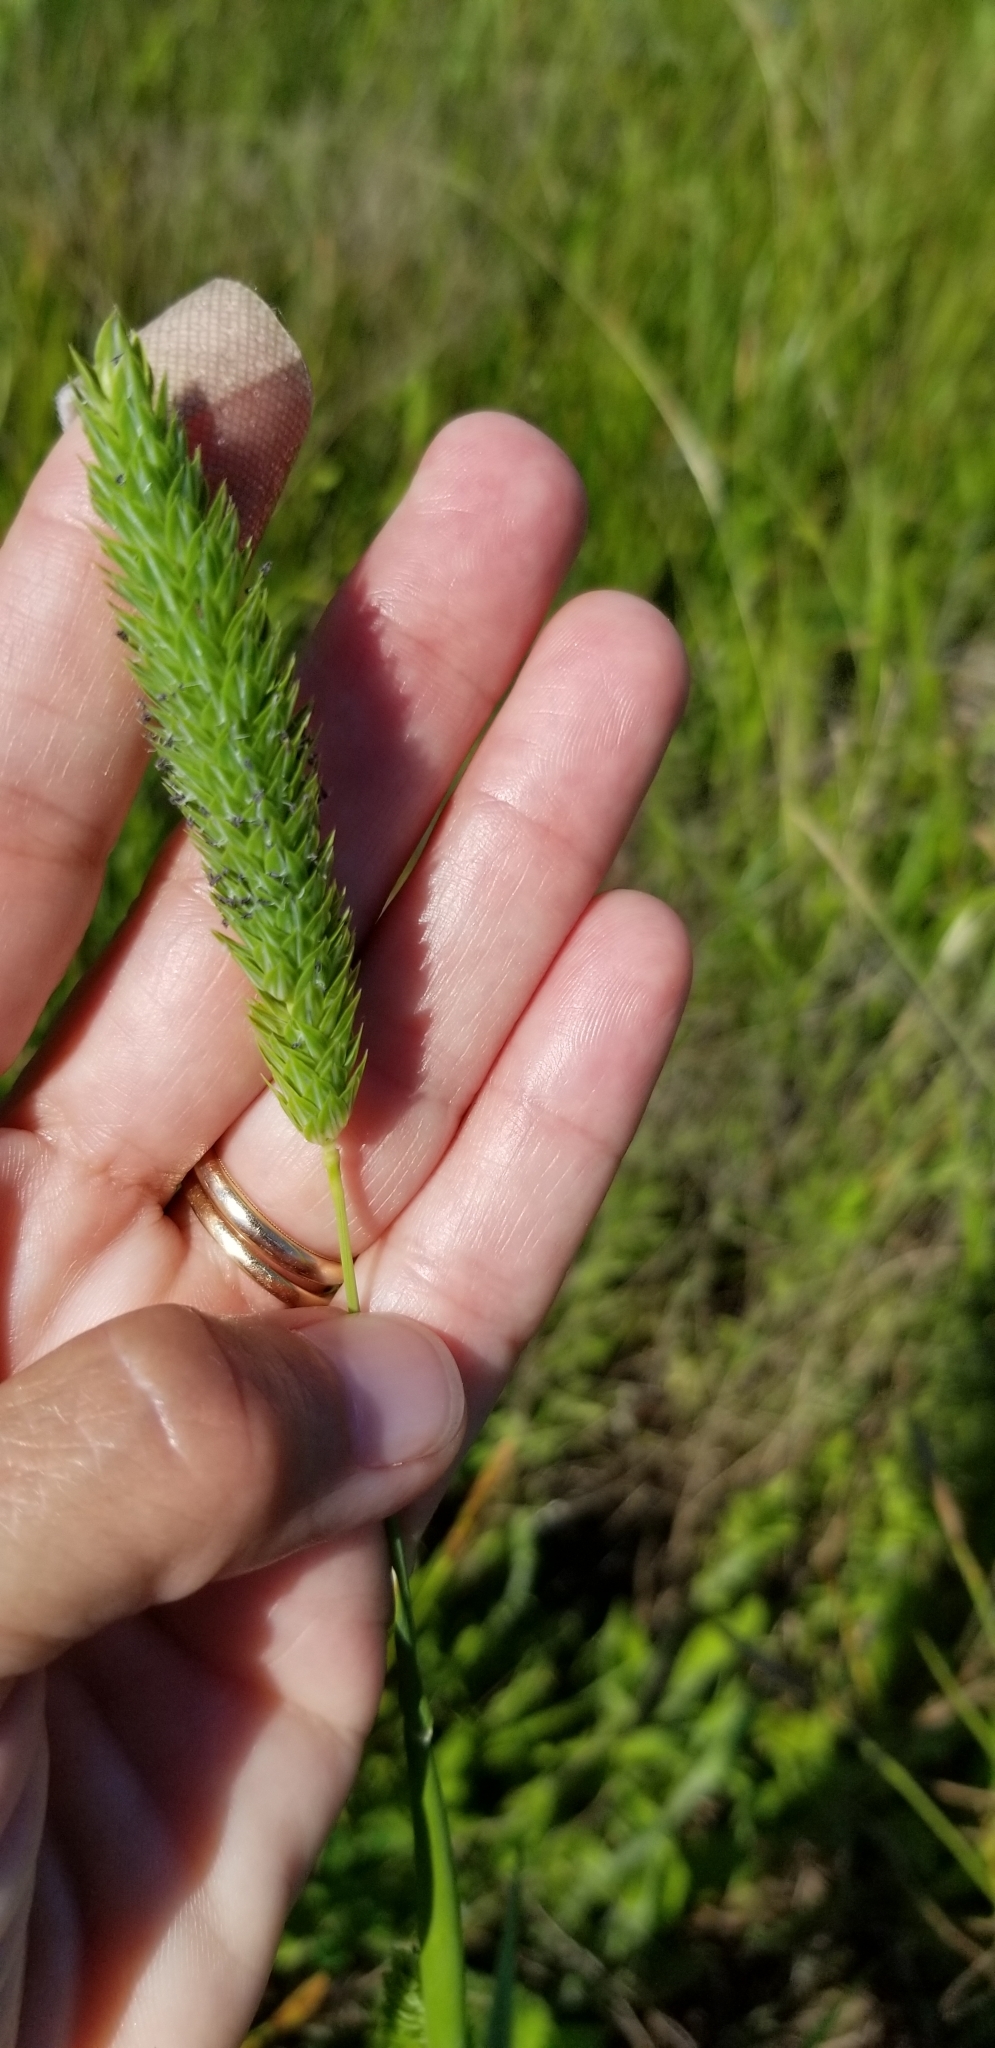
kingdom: Plantae
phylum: Tracheophyta
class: Liliopsida
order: Poales
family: Poaceae
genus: Phalaris
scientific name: Phalaris caroliniana
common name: May grass
